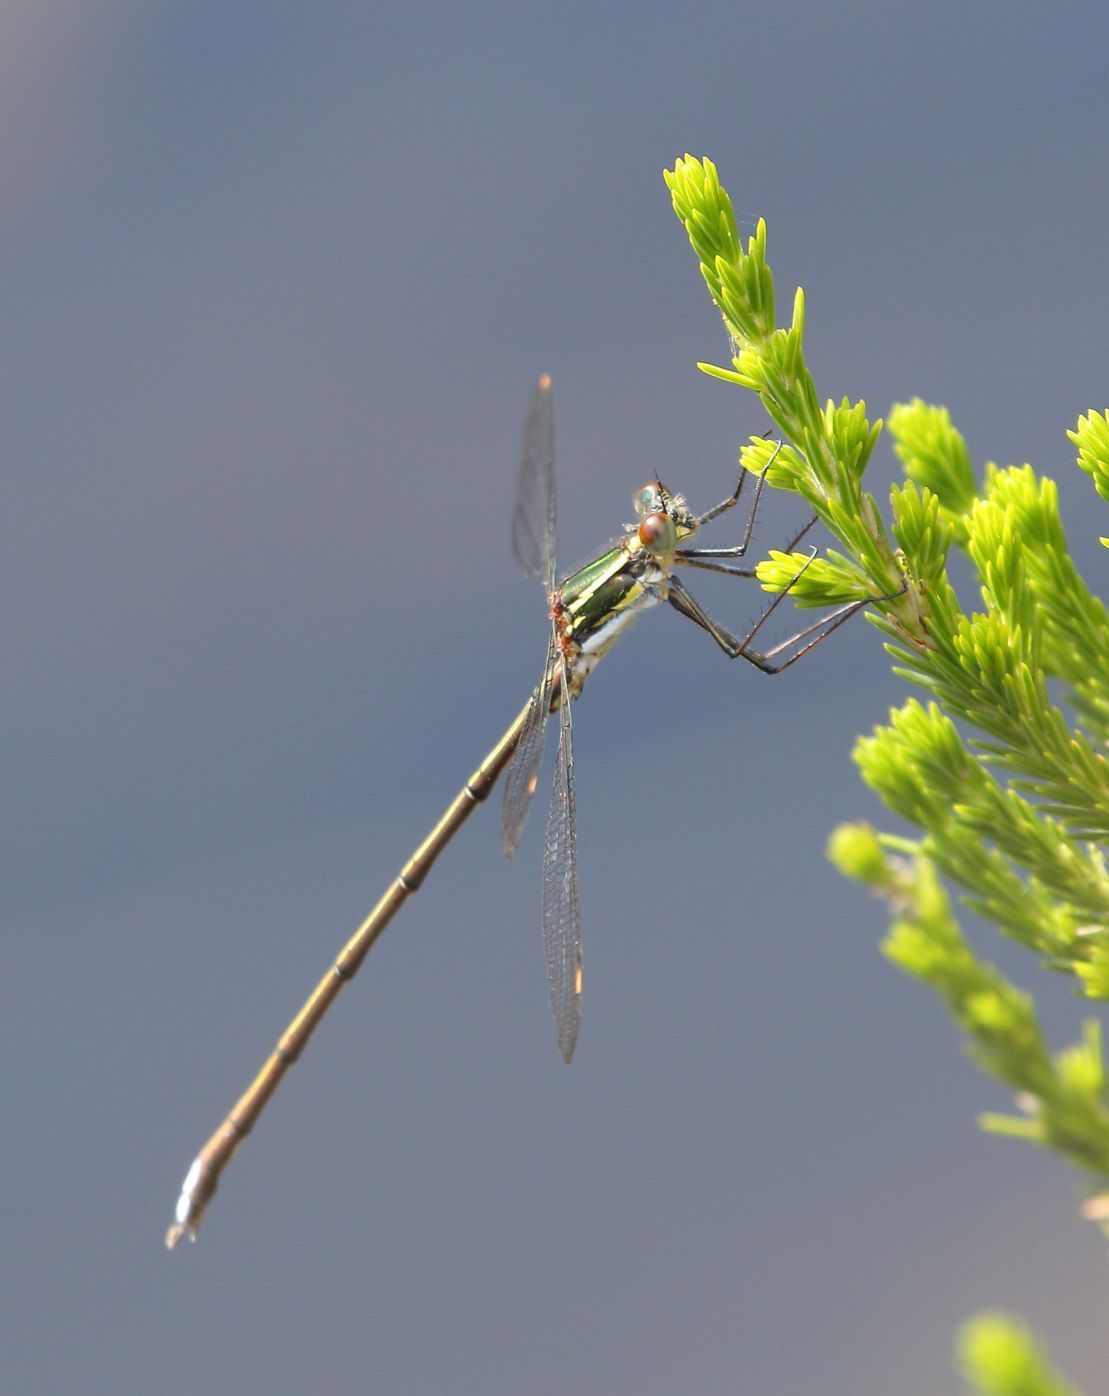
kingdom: Animalia
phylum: Arthropoda
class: Insecta
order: Odonata
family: Synlestidae
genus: Chlorolestes
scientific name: Chlorolestes draconicus
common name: Drakensberg malachite
